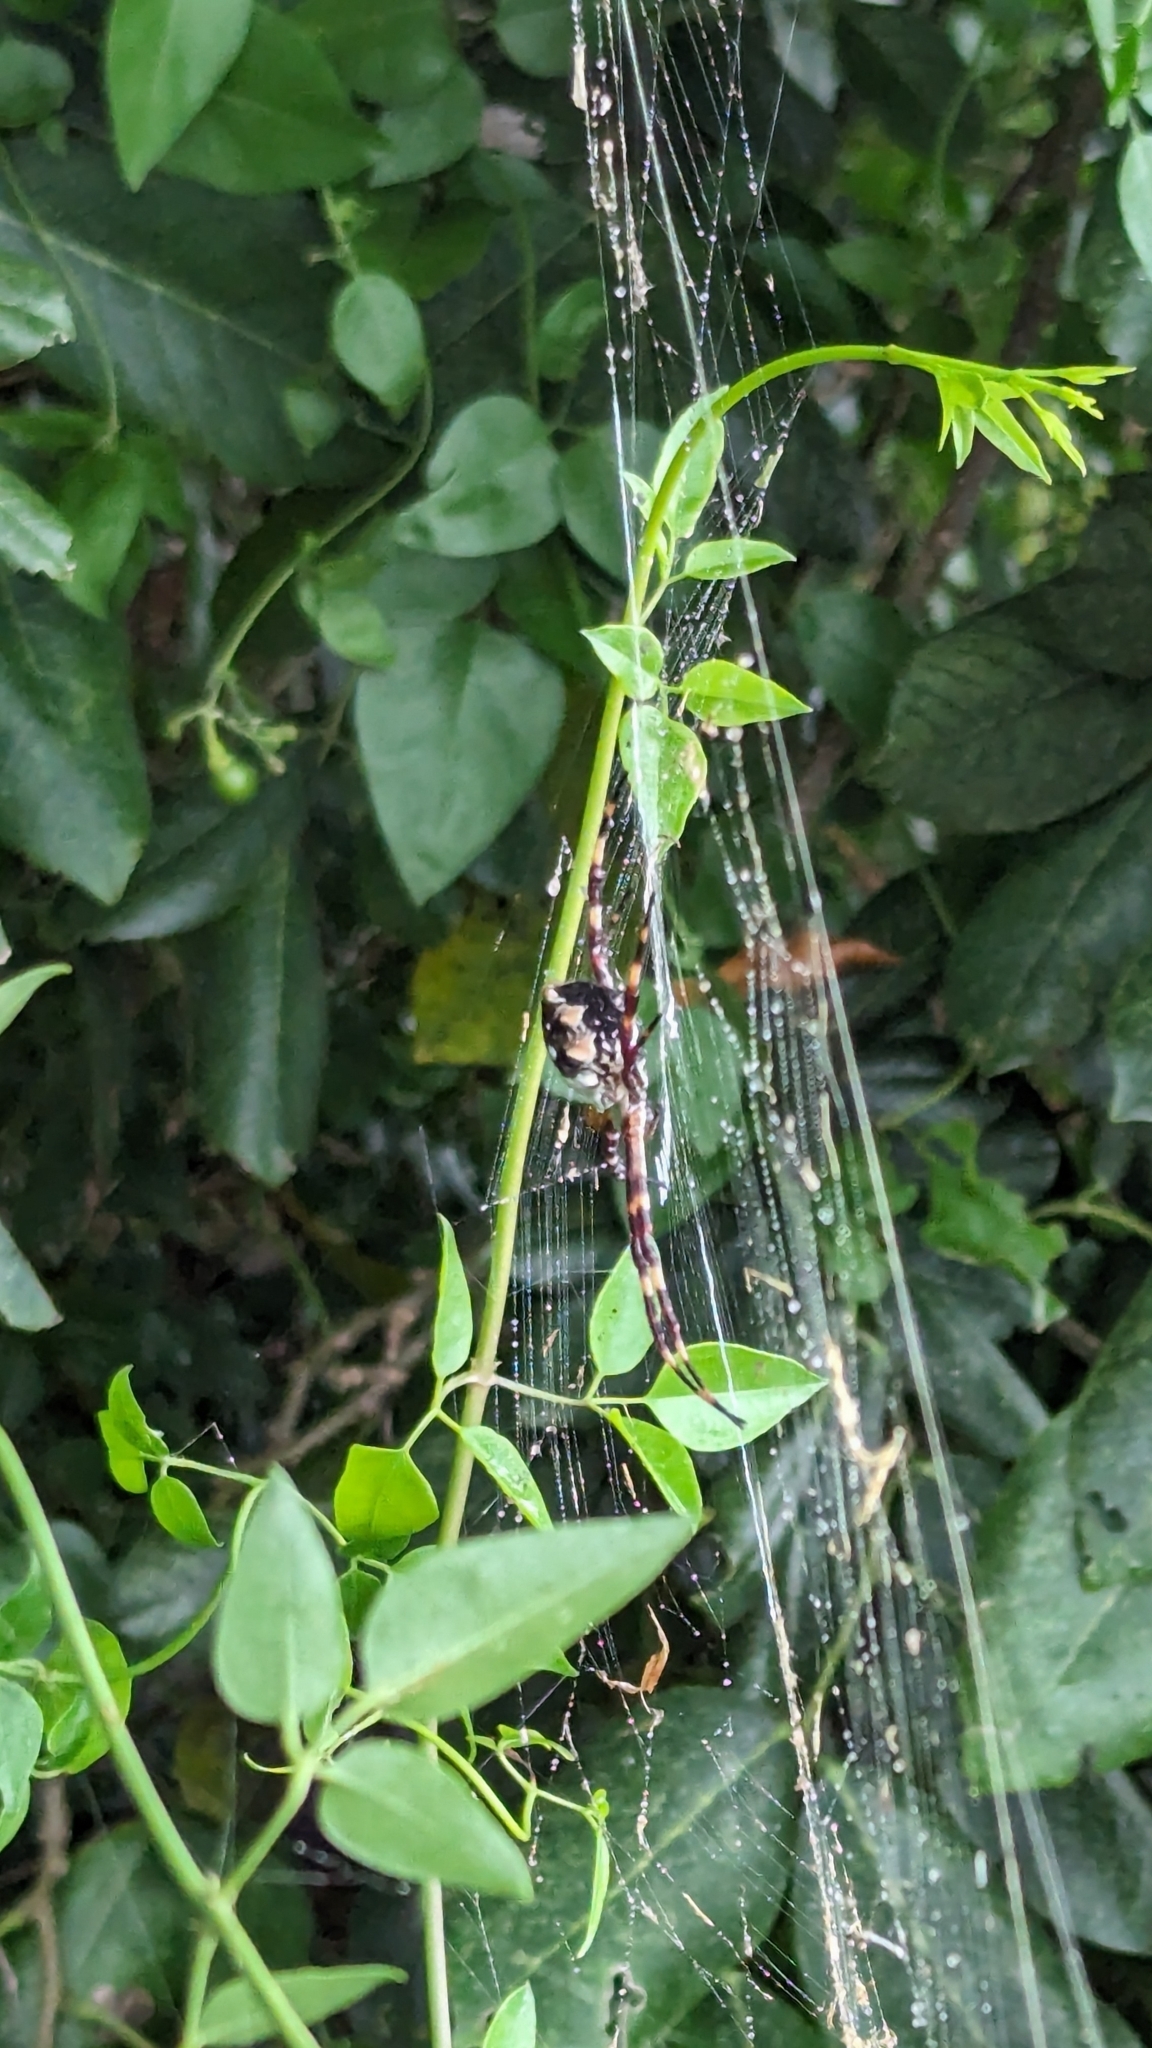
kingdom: Animalia
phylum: Arthropoda
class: Arachnida
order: Araneae
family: Araneidae
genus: Argiope
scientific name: Argiope argentata
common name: Orb weavers
